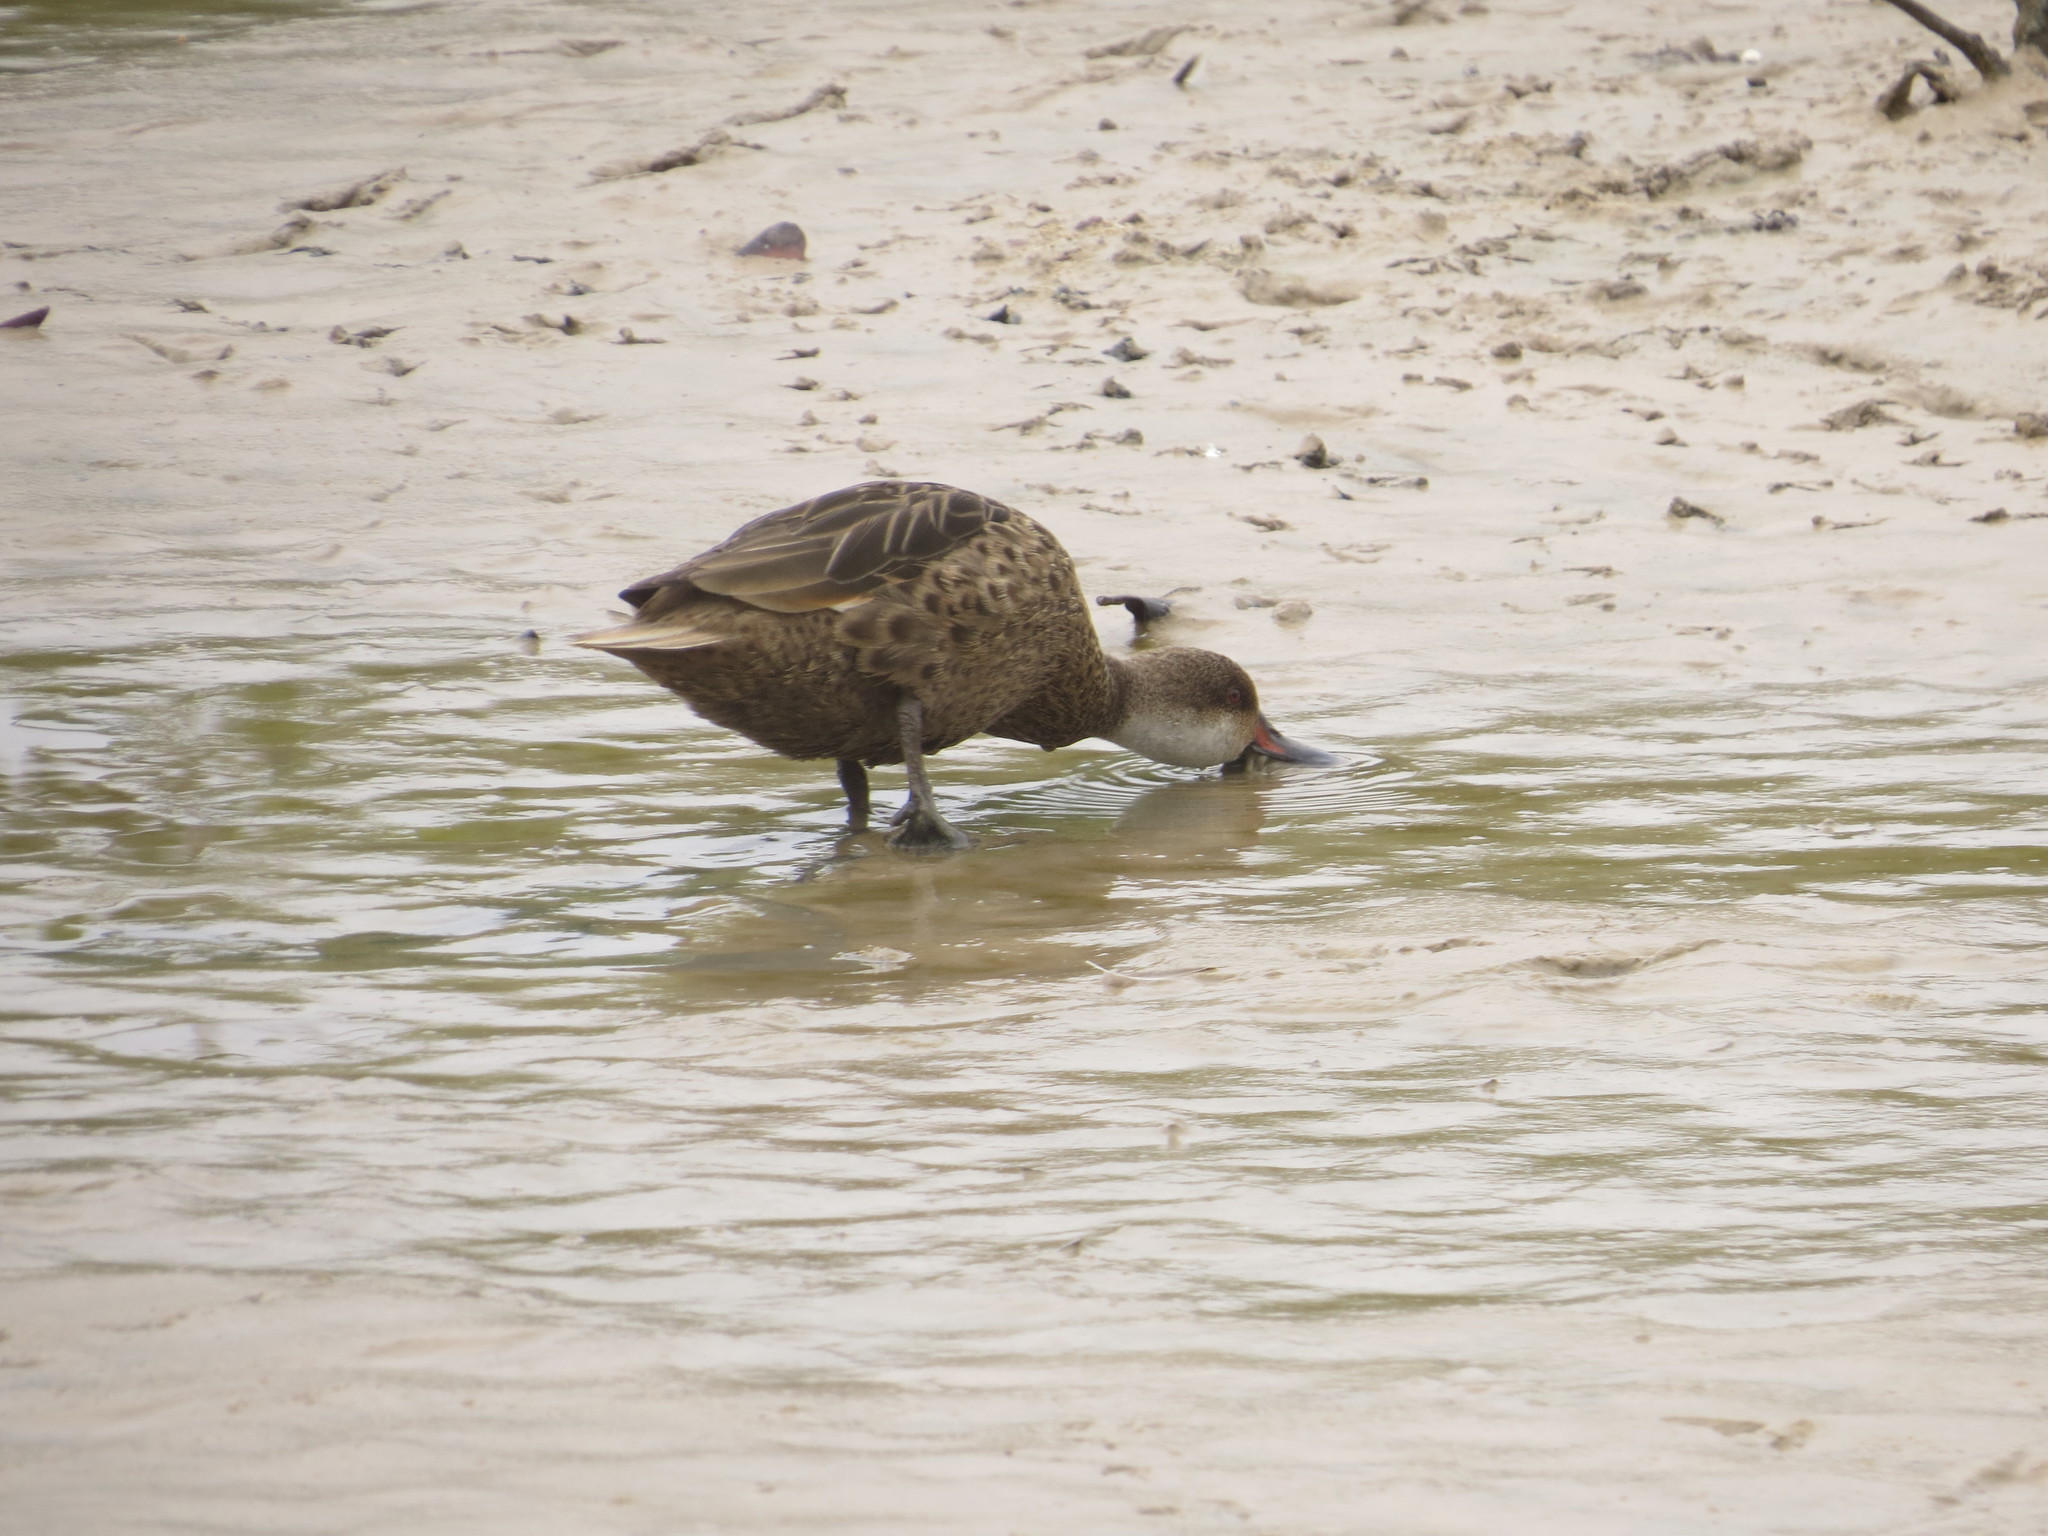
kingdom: Animalia
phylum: Chordata
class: Aves
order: Anseriformes
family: Anatidae
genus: Anas
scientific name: Anas bahamensis
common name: White-cheeked pintail
